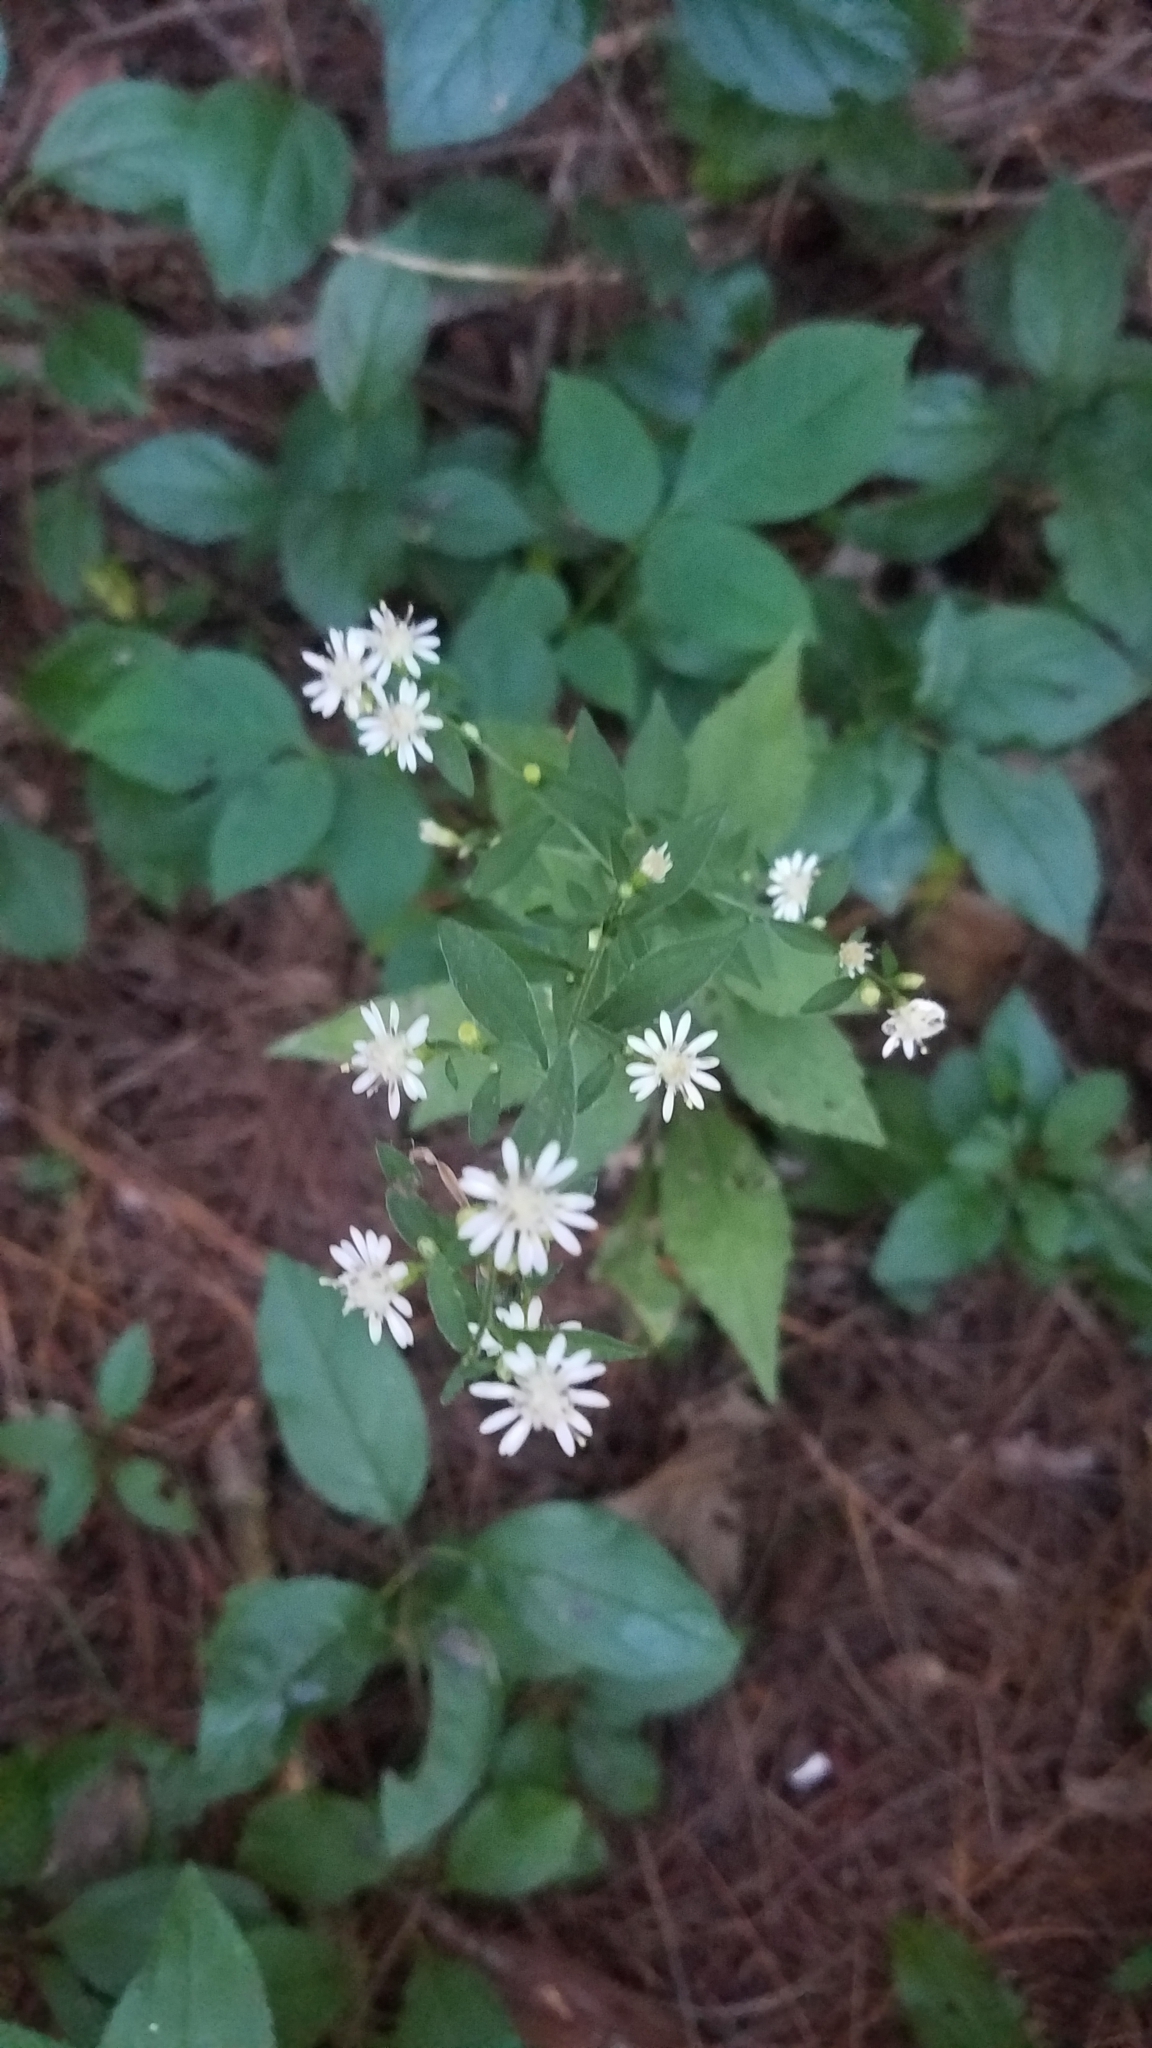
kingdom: Plantae
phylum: Tracheophyta
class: Magnoliopsida
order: Asterales
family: Asteraceae
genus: Symphyotrichum
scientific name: Symphyotrichum lateriflorum
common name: Calico aster
